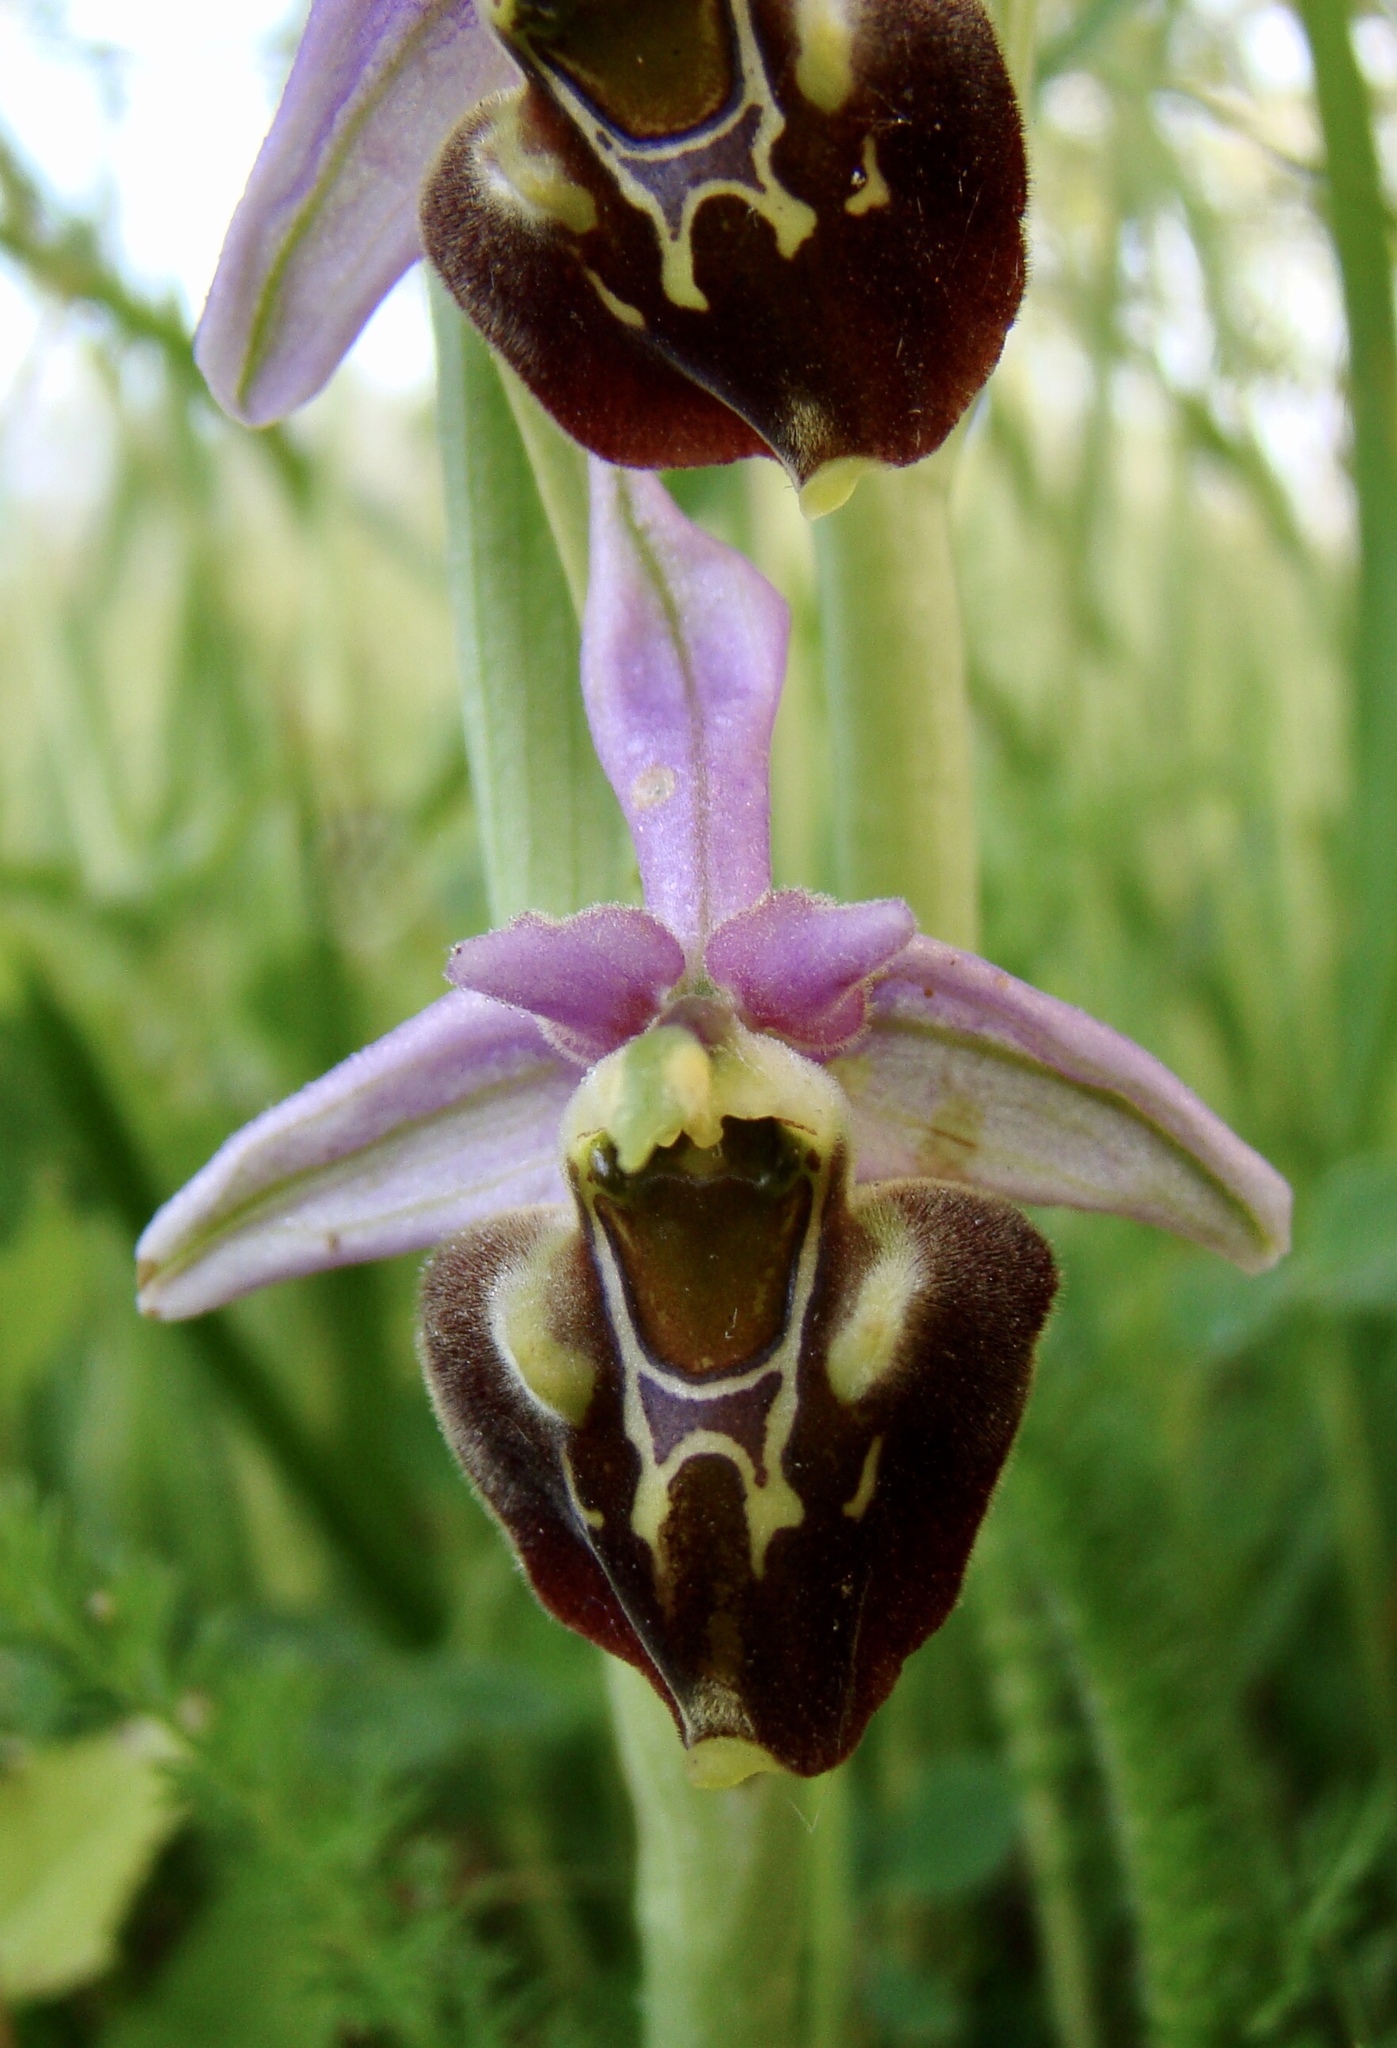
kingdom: Plantae
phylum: Tracheophyta
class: Liliopsida
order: Asparagales
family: Orchidaceae
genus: Ophrys
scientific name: Ophrys holosericea
